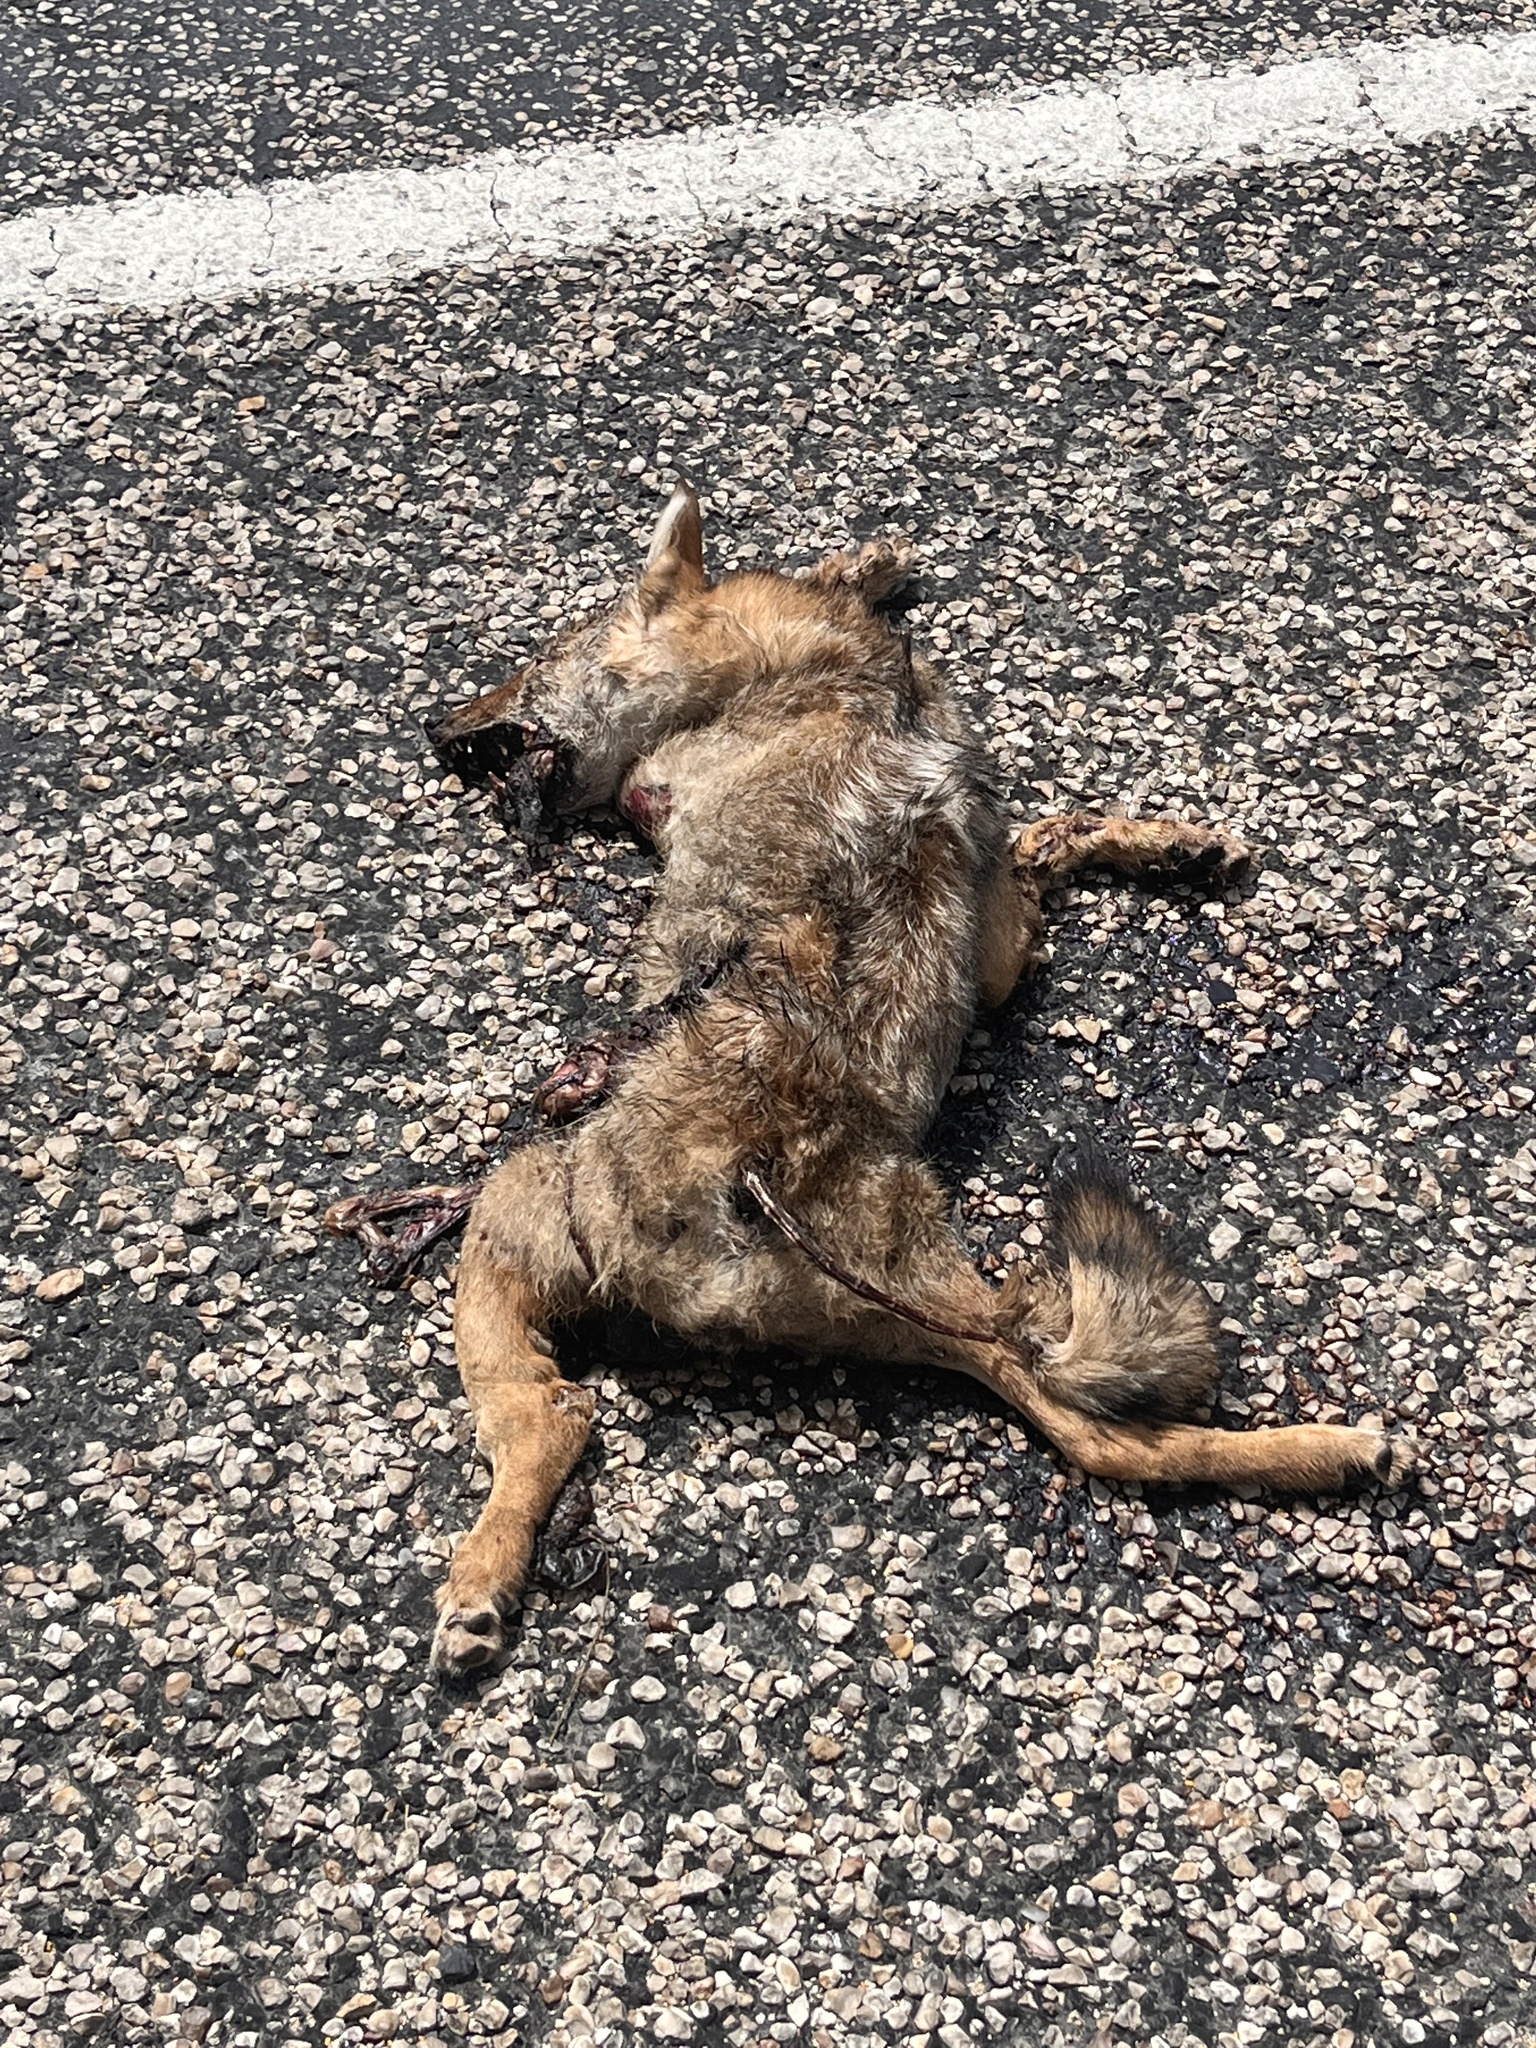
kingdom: Animalia
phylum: Chordata
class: Mammalia
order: Carnivora
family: Canidae
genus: Canis
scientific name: Canis latrans
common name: Coyote
